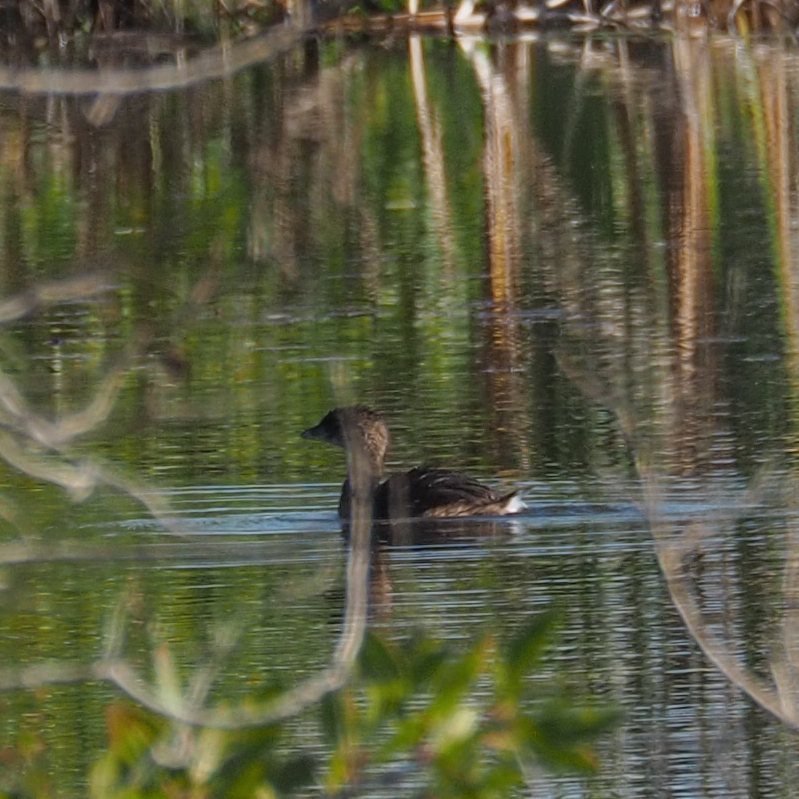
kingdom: Animalia
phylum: Chordata
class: Aves
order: Podicipediformes
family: Podicipedidae
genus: Podilymbus
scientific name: Podilymbus podiceps
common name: Pied-billed grebe
